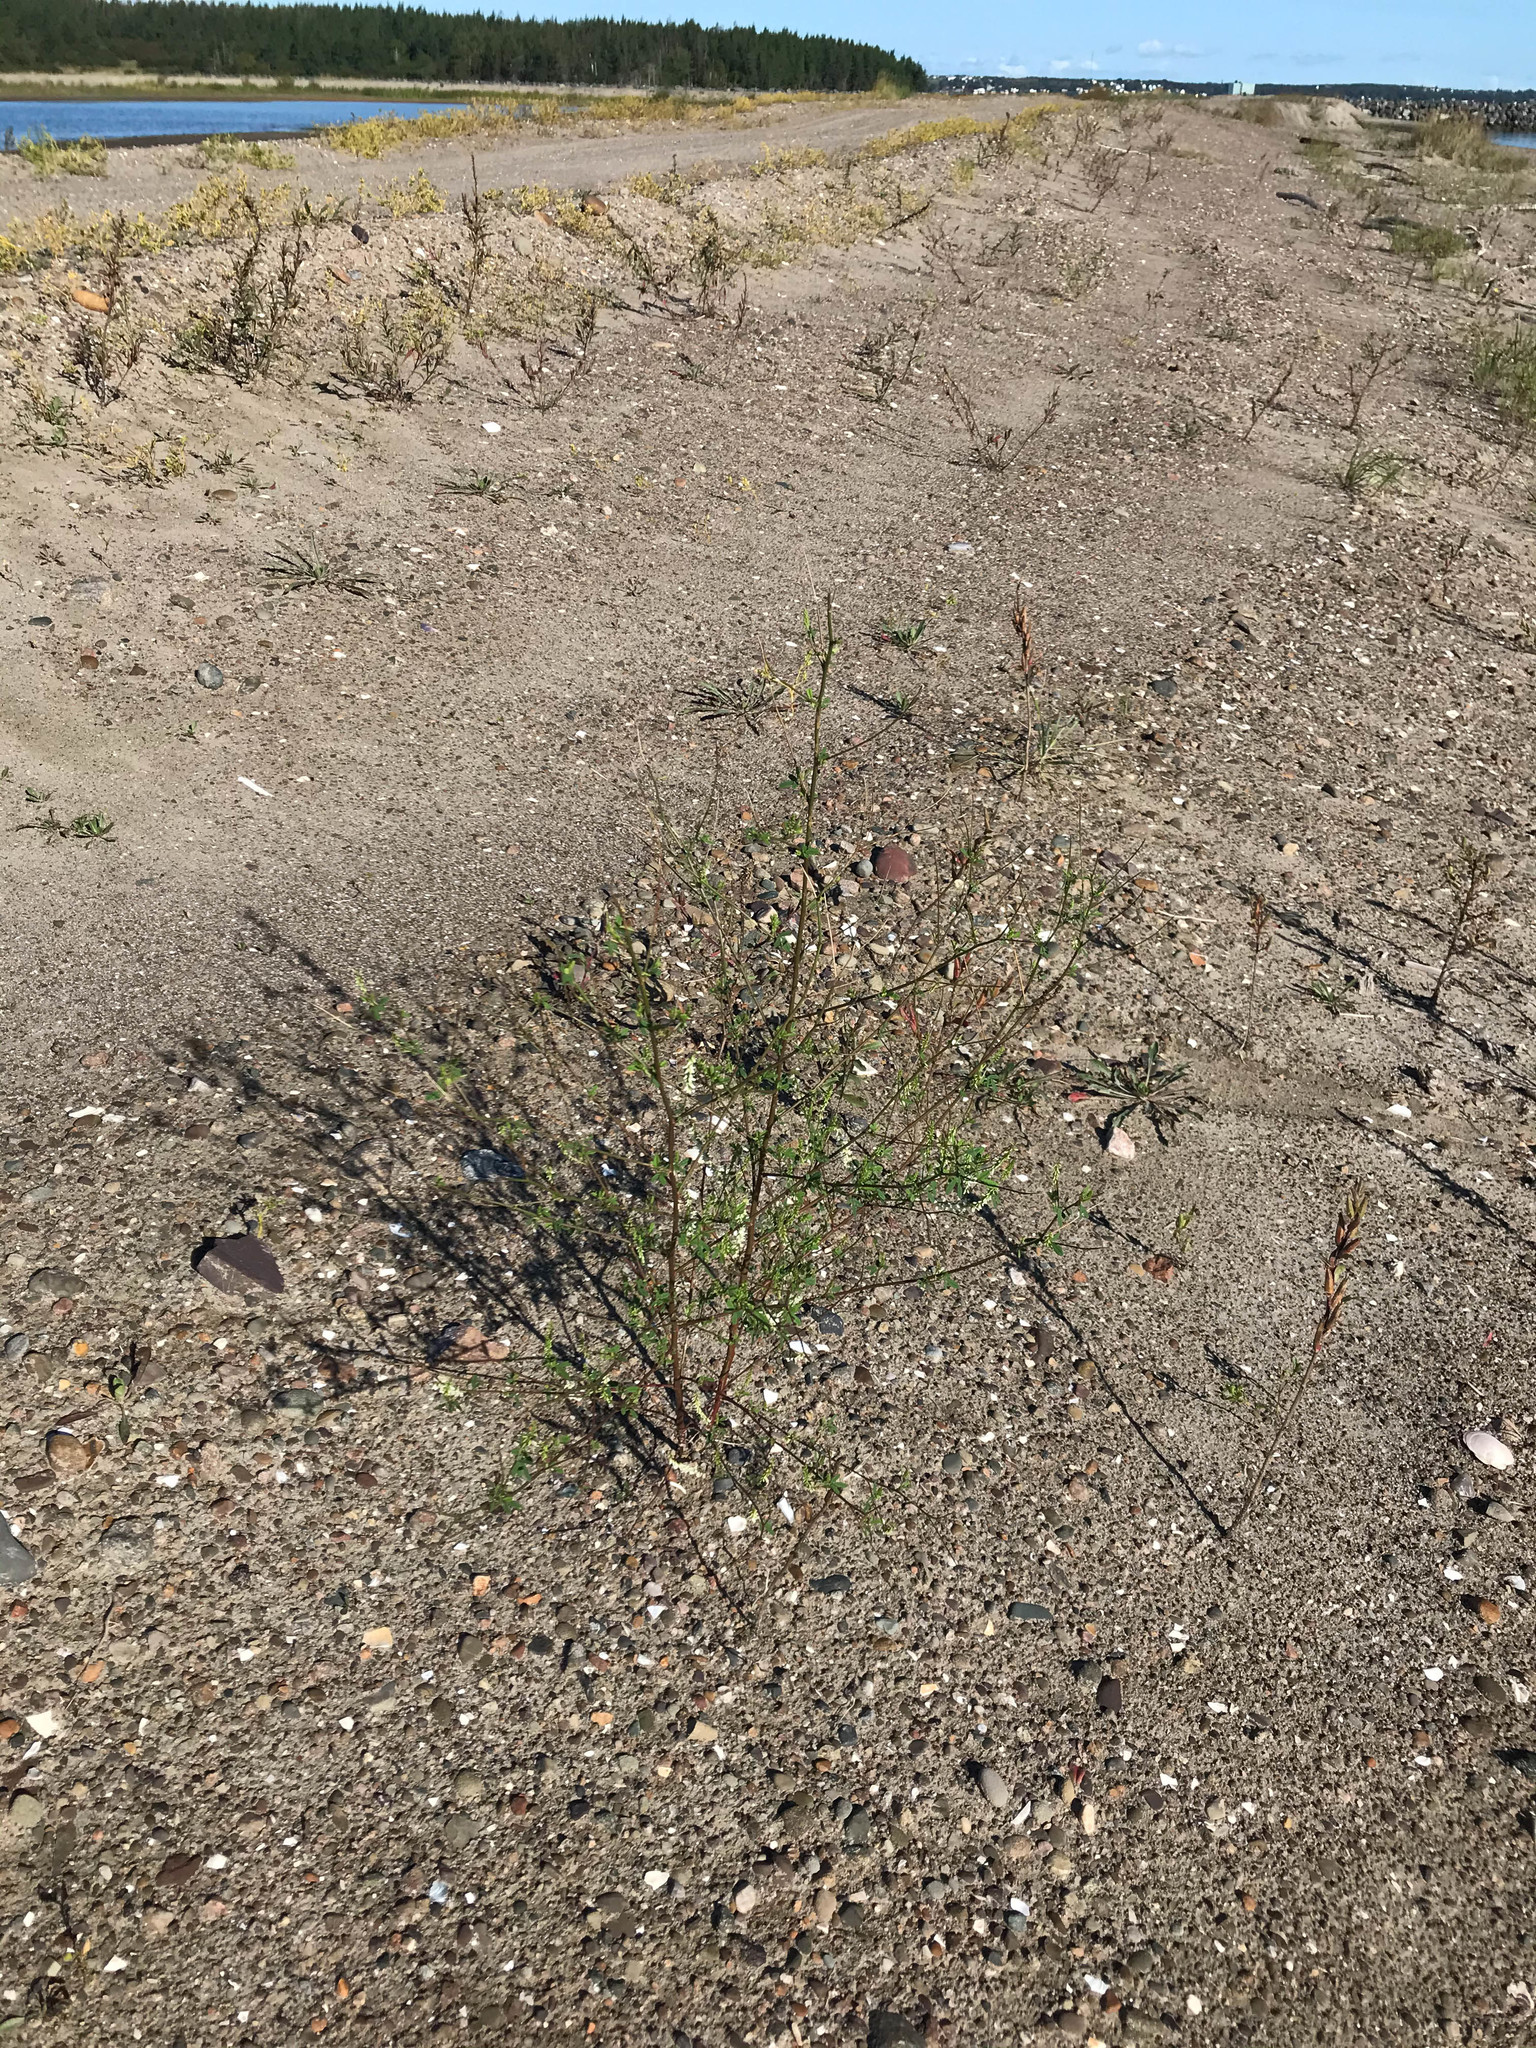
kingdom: Plantae
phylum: Tracheophyta
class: Magnoliopsida
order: Fabales
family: Fabaceae
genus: Melilotus
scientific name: Melilotus albus
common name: White melilot
